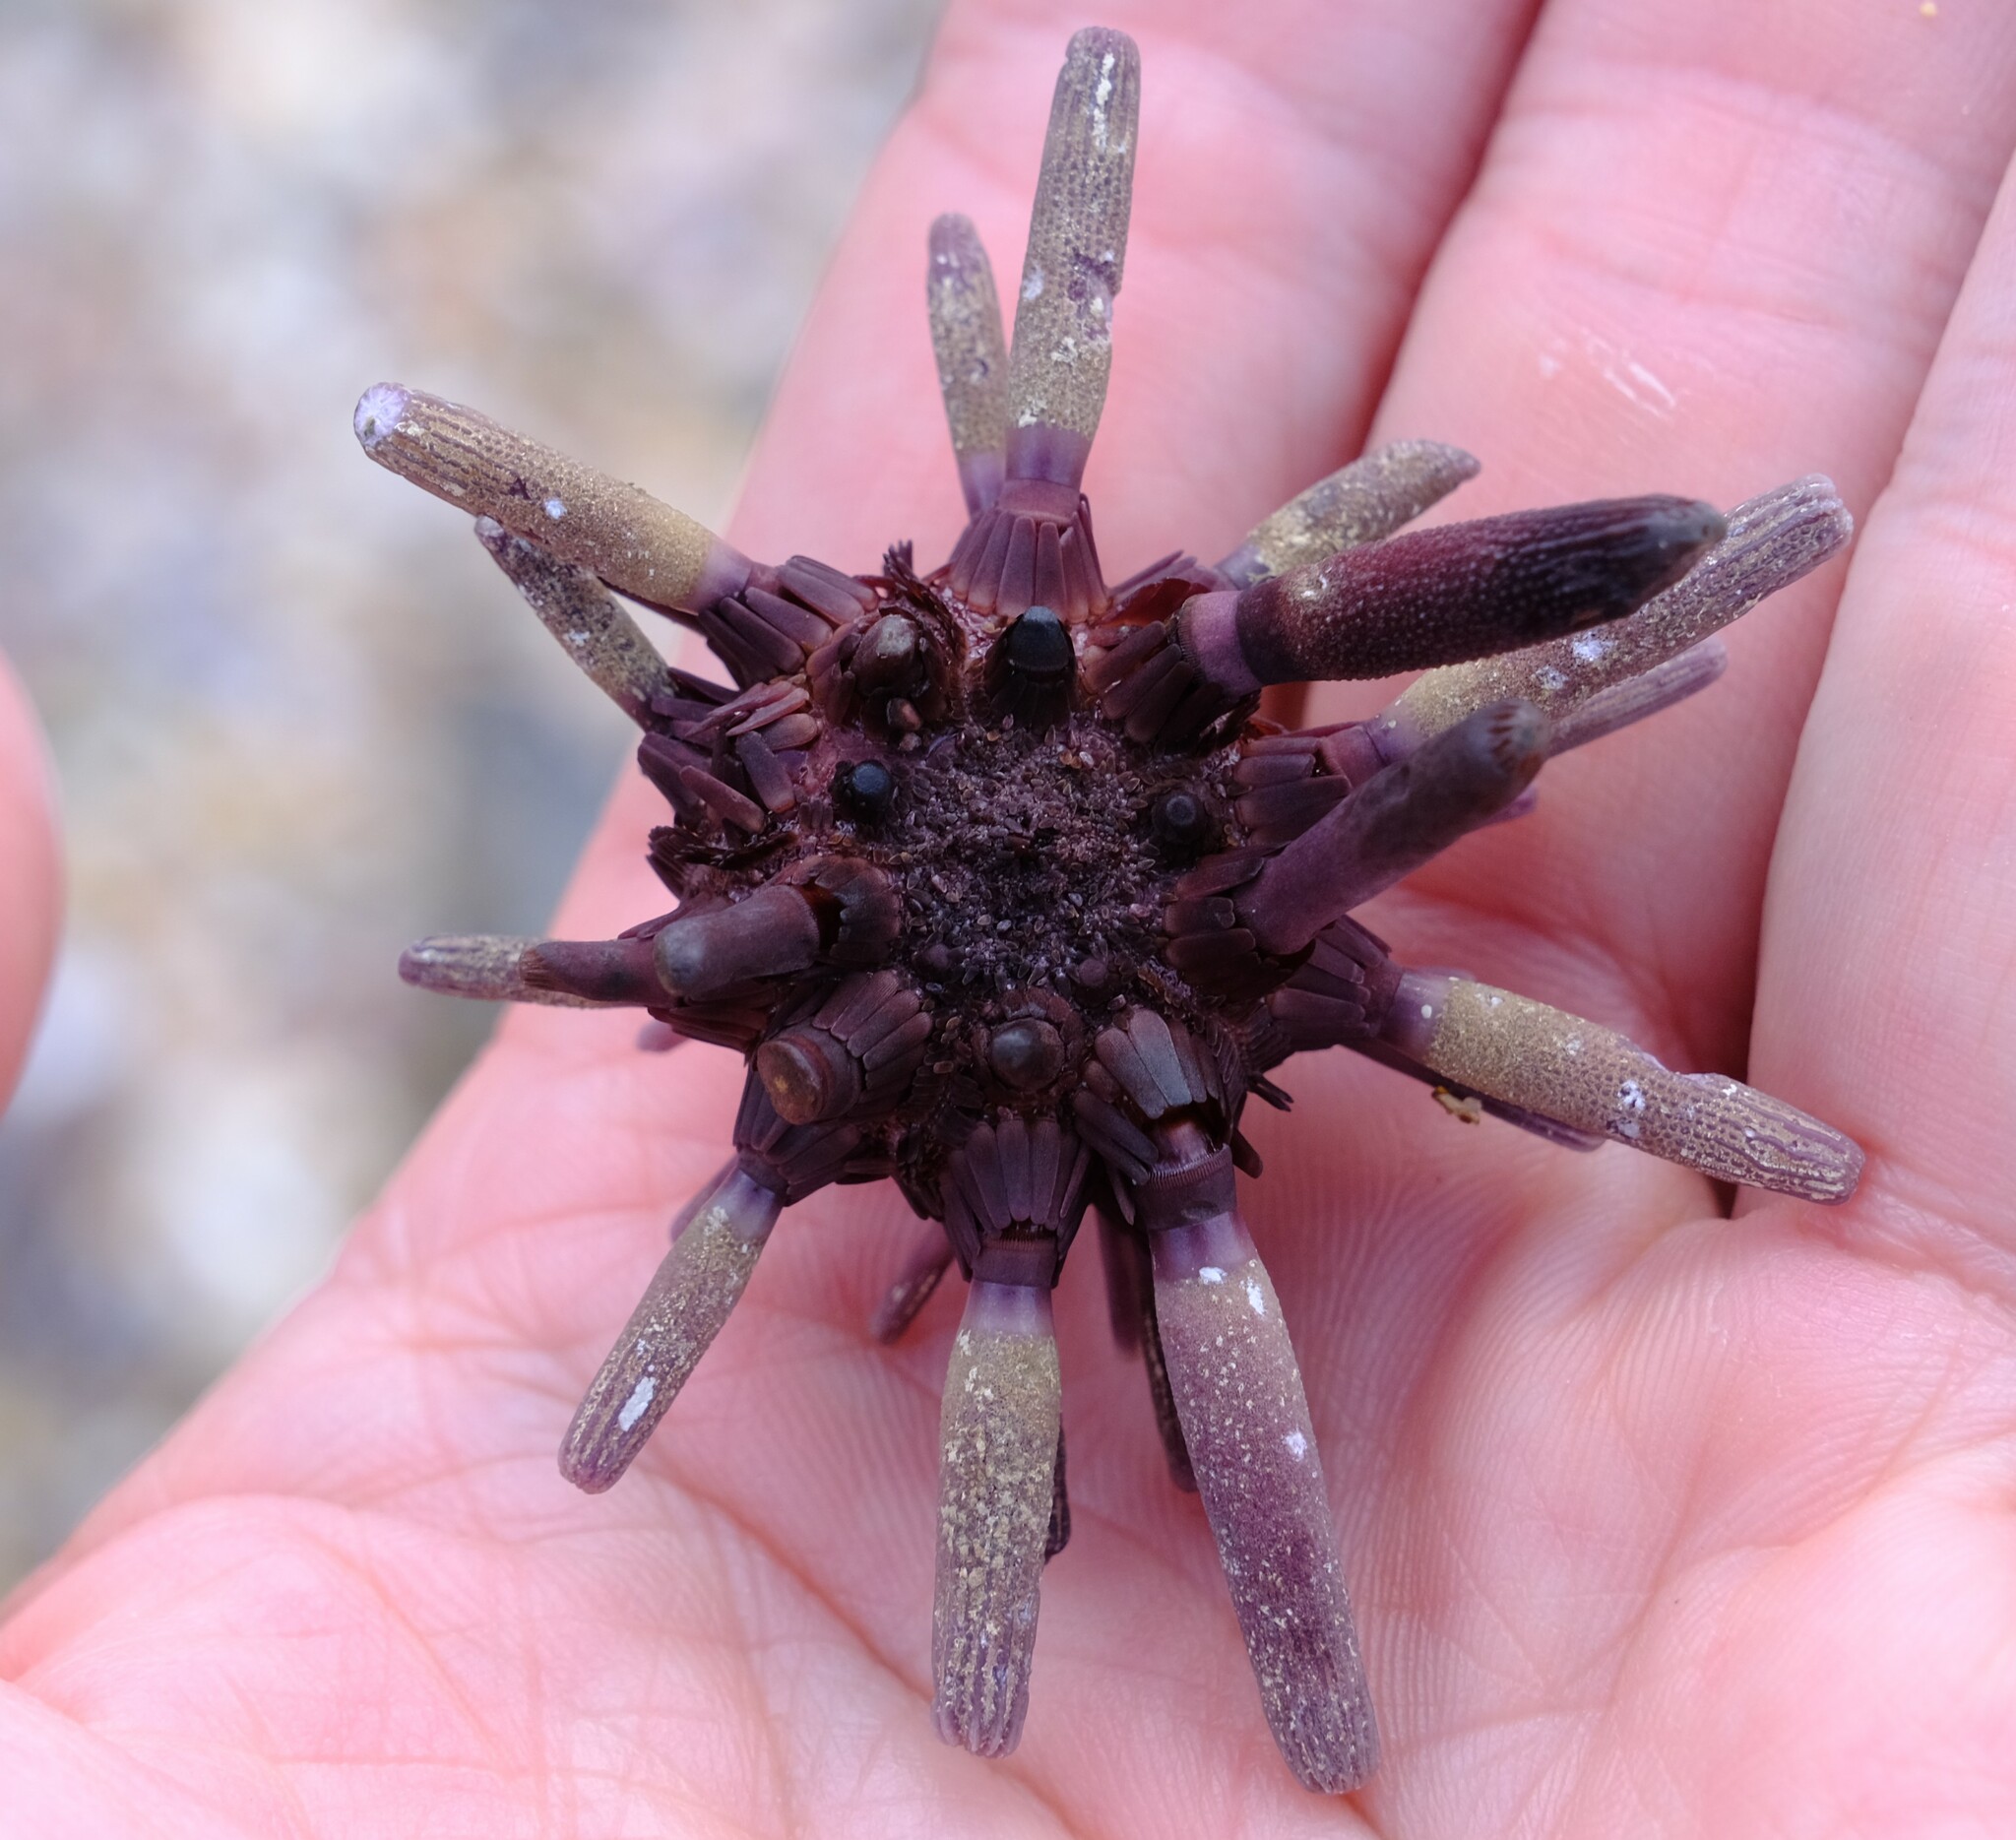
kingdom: Animalia
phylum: Echinodermata
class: Echinoidea
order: Cidaroida
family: Cidaridae
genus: Phyllacanthus
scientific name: Phyllacanthus parvispinus
